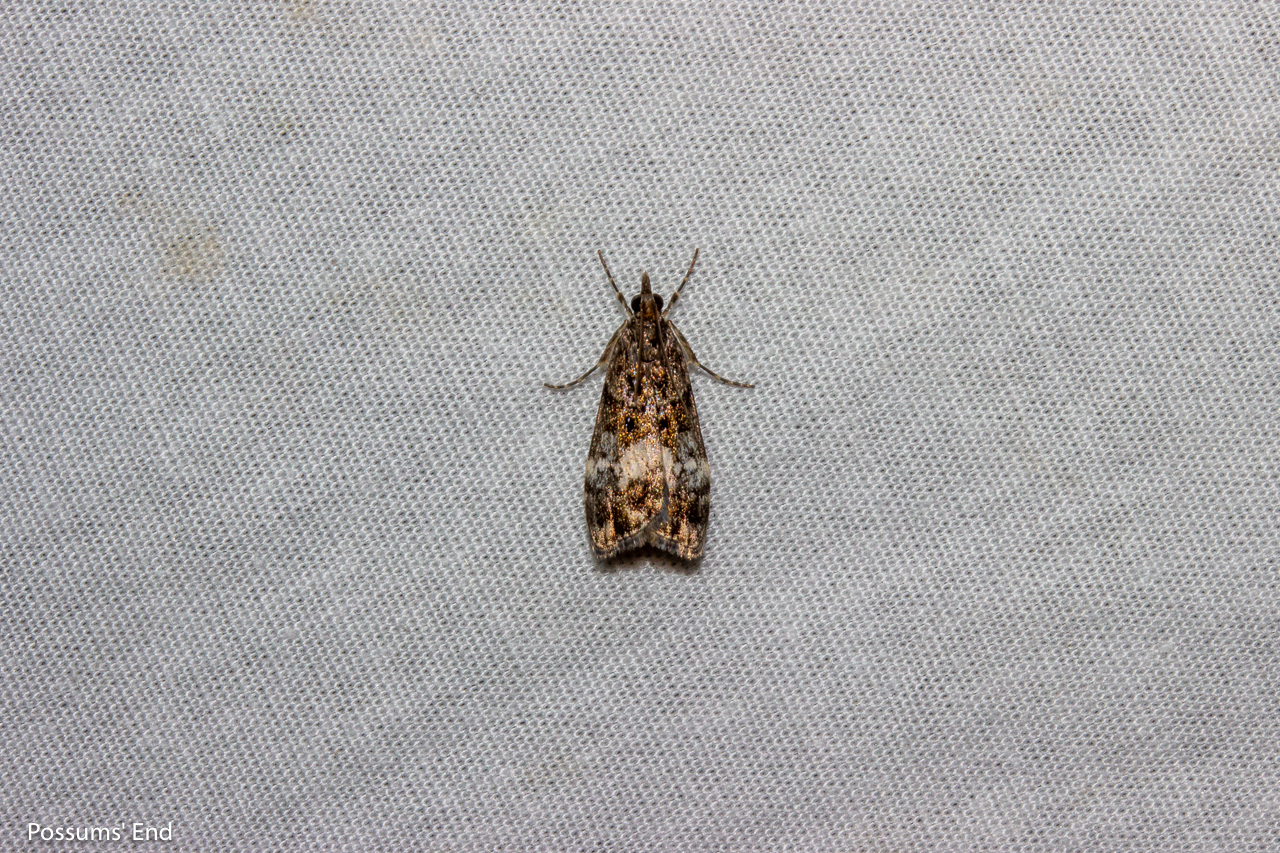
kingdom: Animalia
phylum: Arthropoda
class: Insecta
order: Lepidoptera
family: Crambidae
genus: Eudonia
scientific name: Eudonia dinodes
